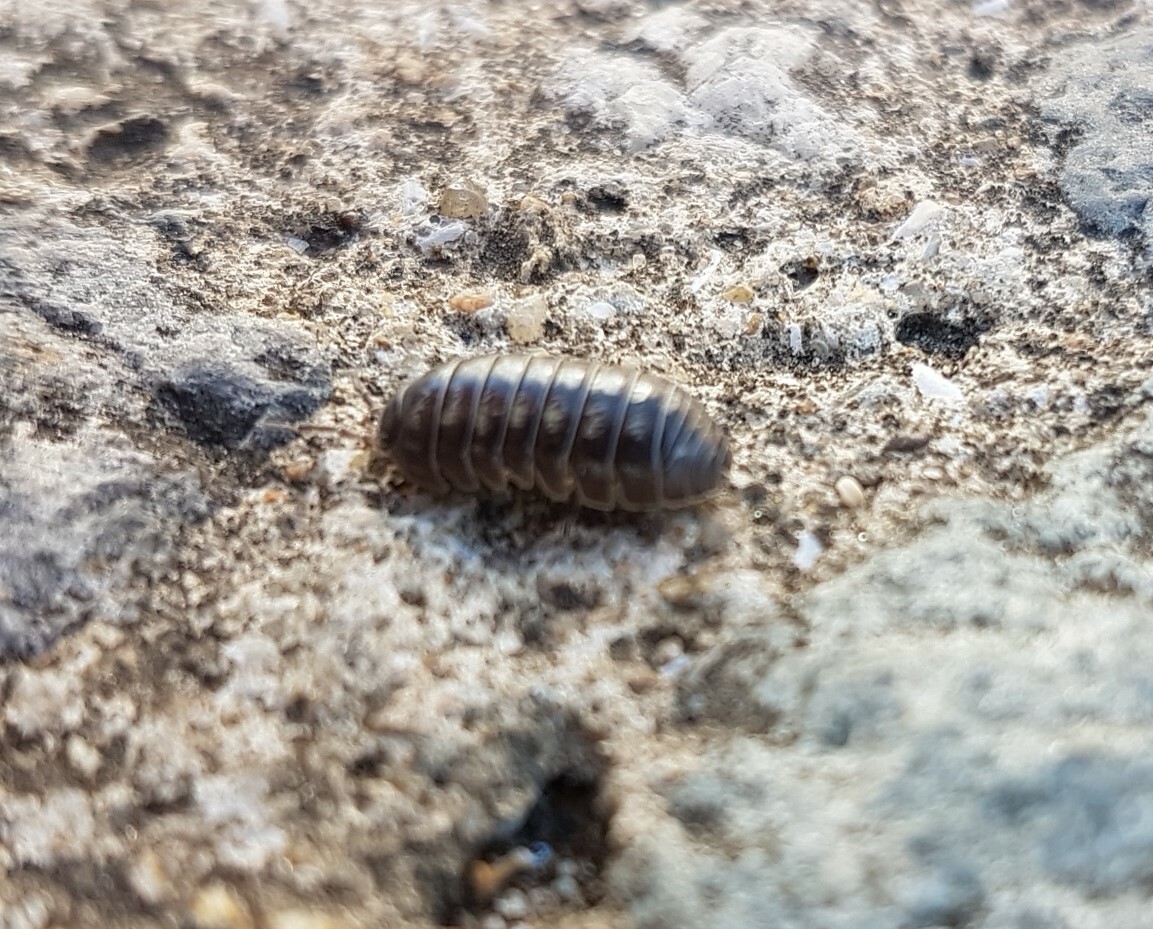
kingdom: Animalia
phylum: Arthropoda
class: Malacostraca
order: Isopoda
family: Armadillidiidae
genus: Armadillidium
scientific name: Armadillidium vulgare
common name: Common pill woodlouse
